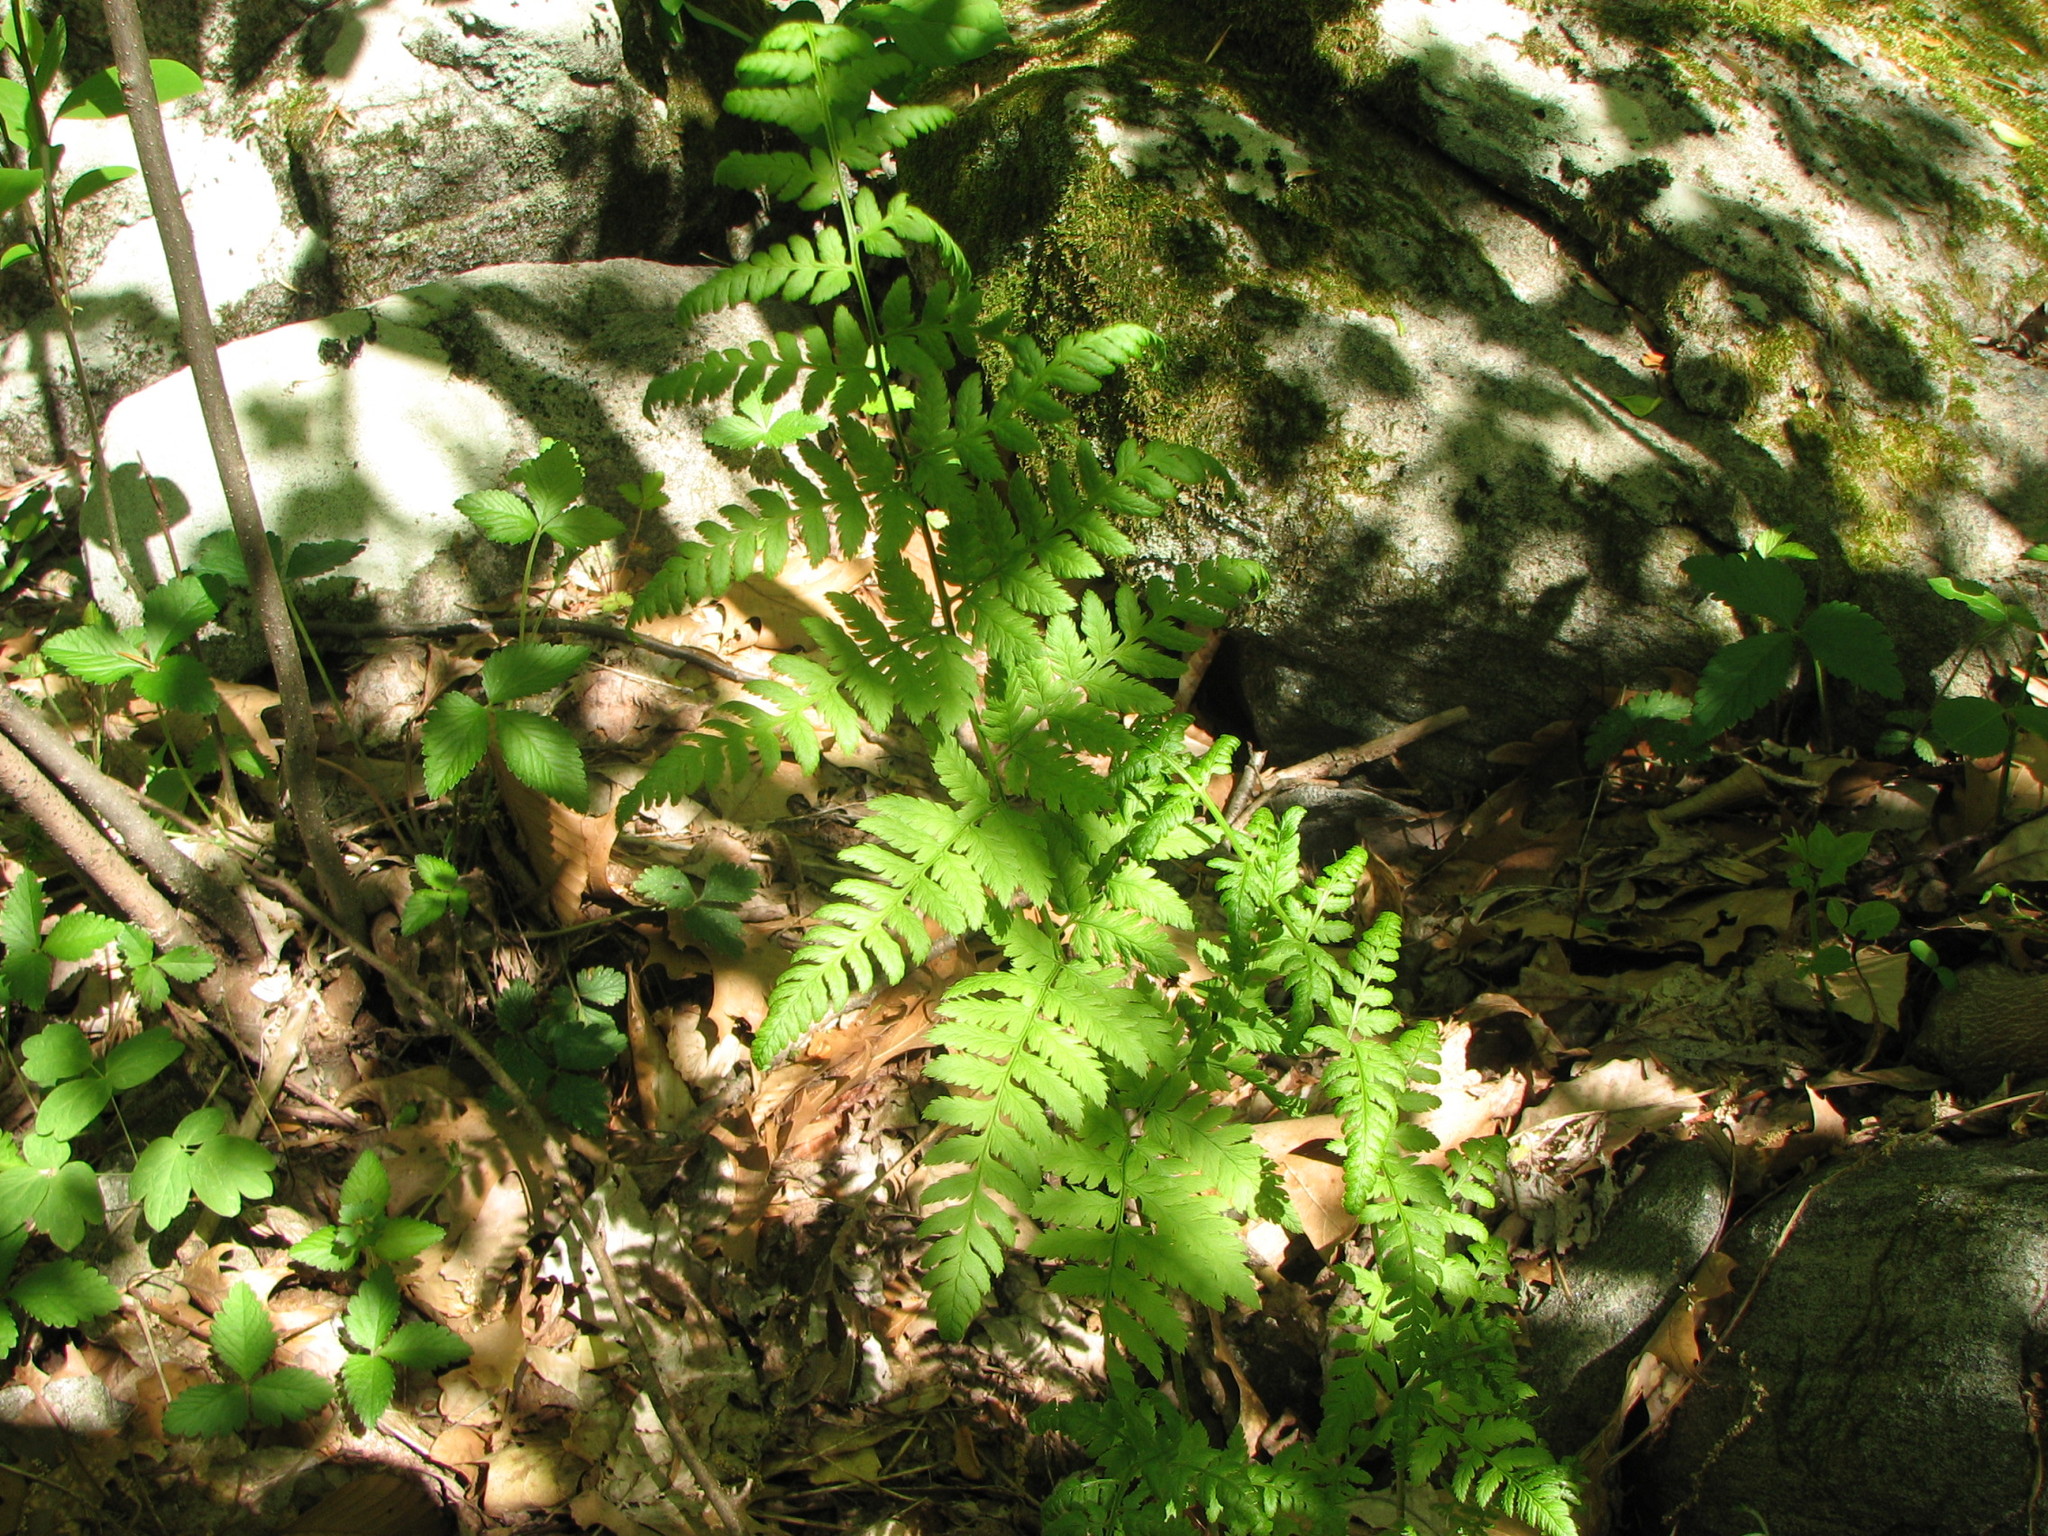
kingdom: Plantae
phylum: Tracheophyta
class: Polypodiopsida
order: Polypodiales
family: Dryopteridaceae
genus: Dryopteris
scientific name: Dryopteris carthusiana
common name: Narrow buckler-fern
